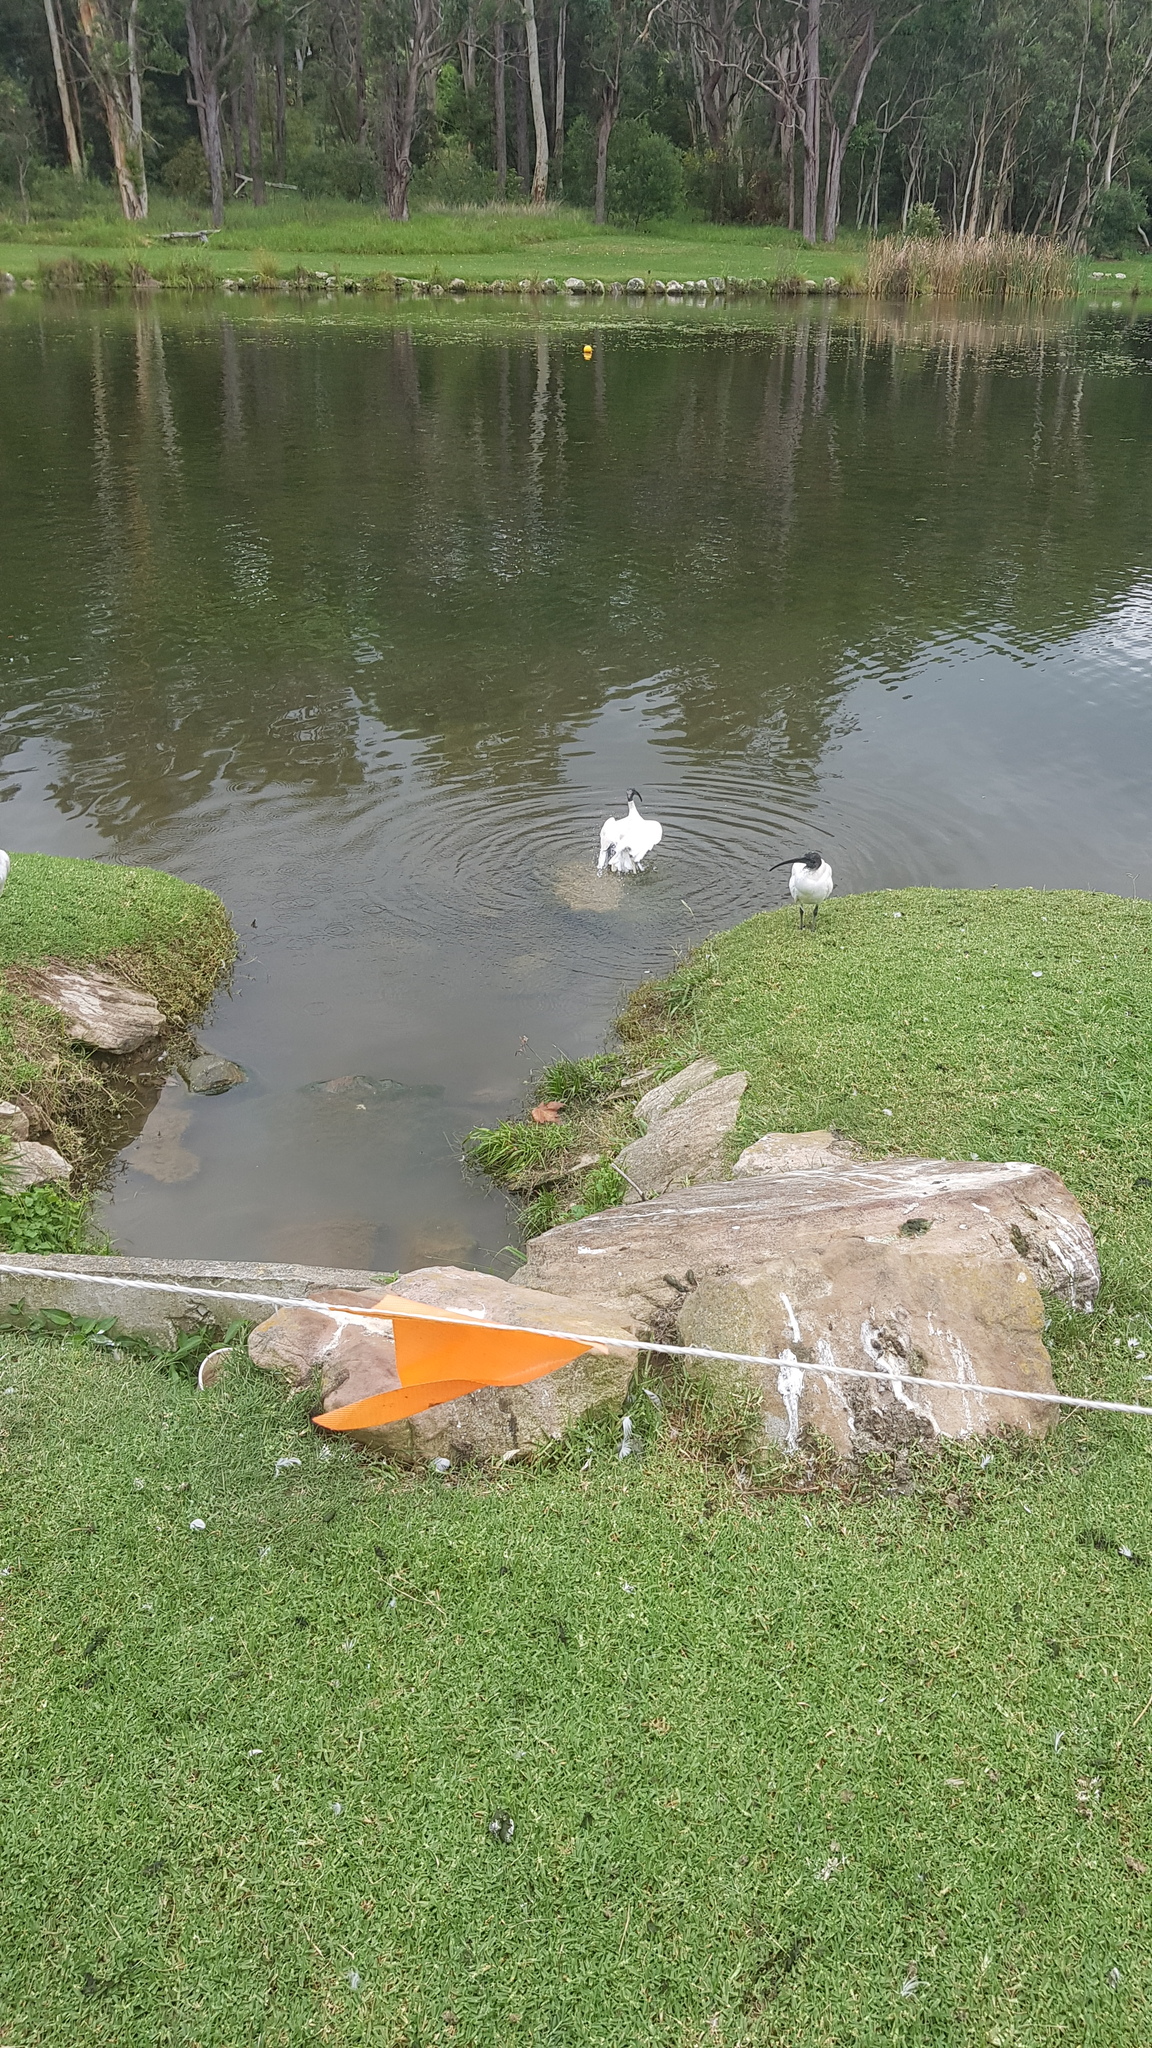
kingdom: Animalia
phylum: Chordata
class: Aves
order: Pelecaniformes
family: Threskiornithidae
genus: Threskiornis
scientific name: Threskiornis molucca
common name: Australian white ibis
